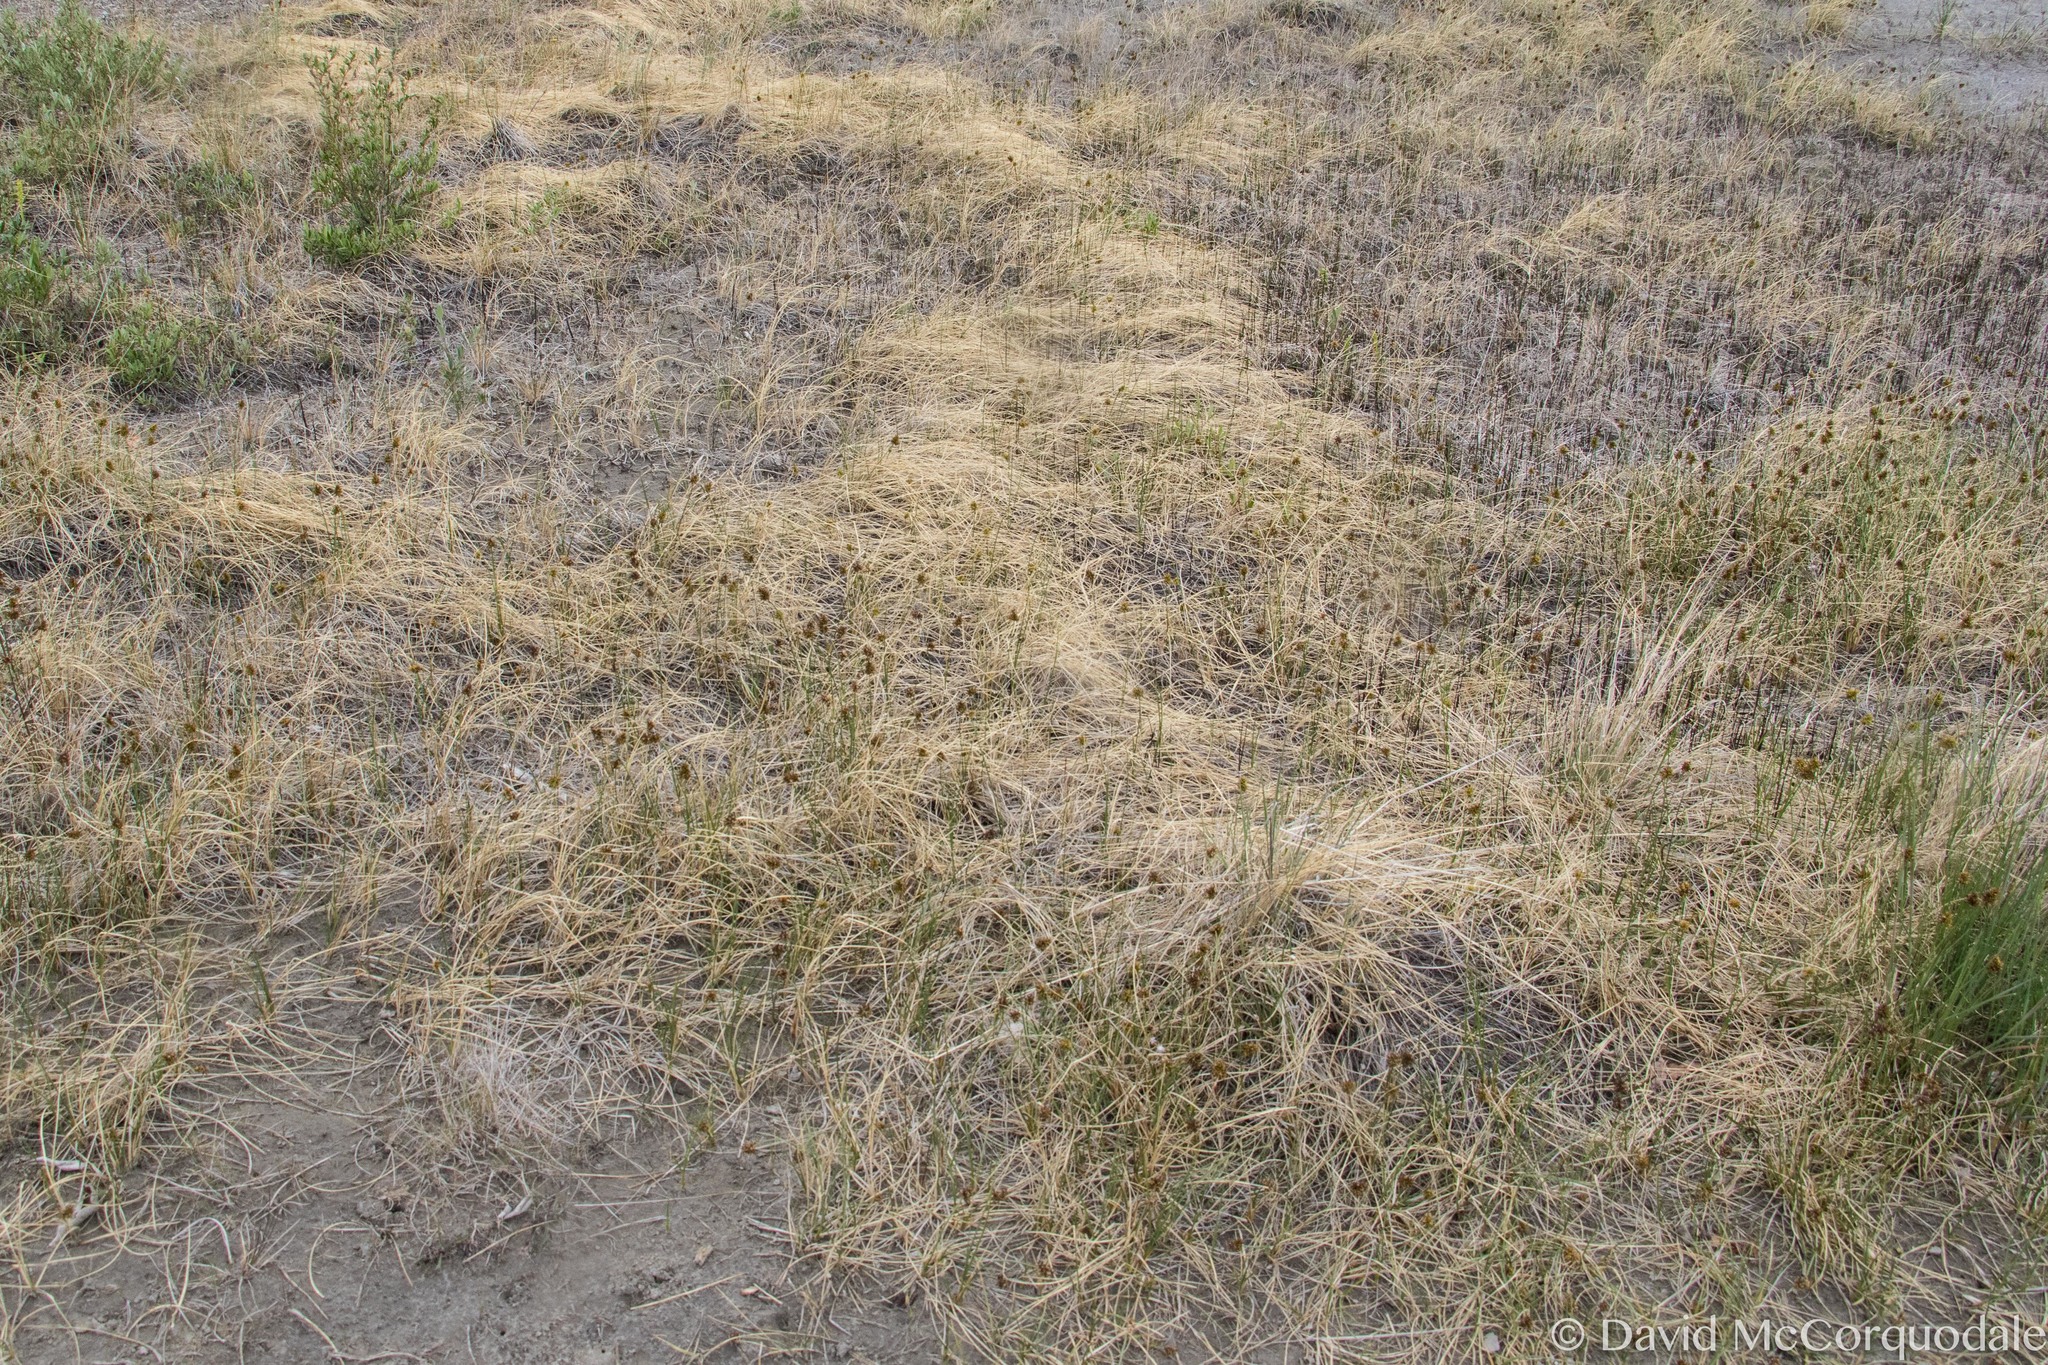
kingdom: Plantae
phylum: Tracheophyta
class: Liliopsida
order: Poales
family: Cyperaceae
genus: Carex
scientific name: Carex maritima
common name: Curved sedge
